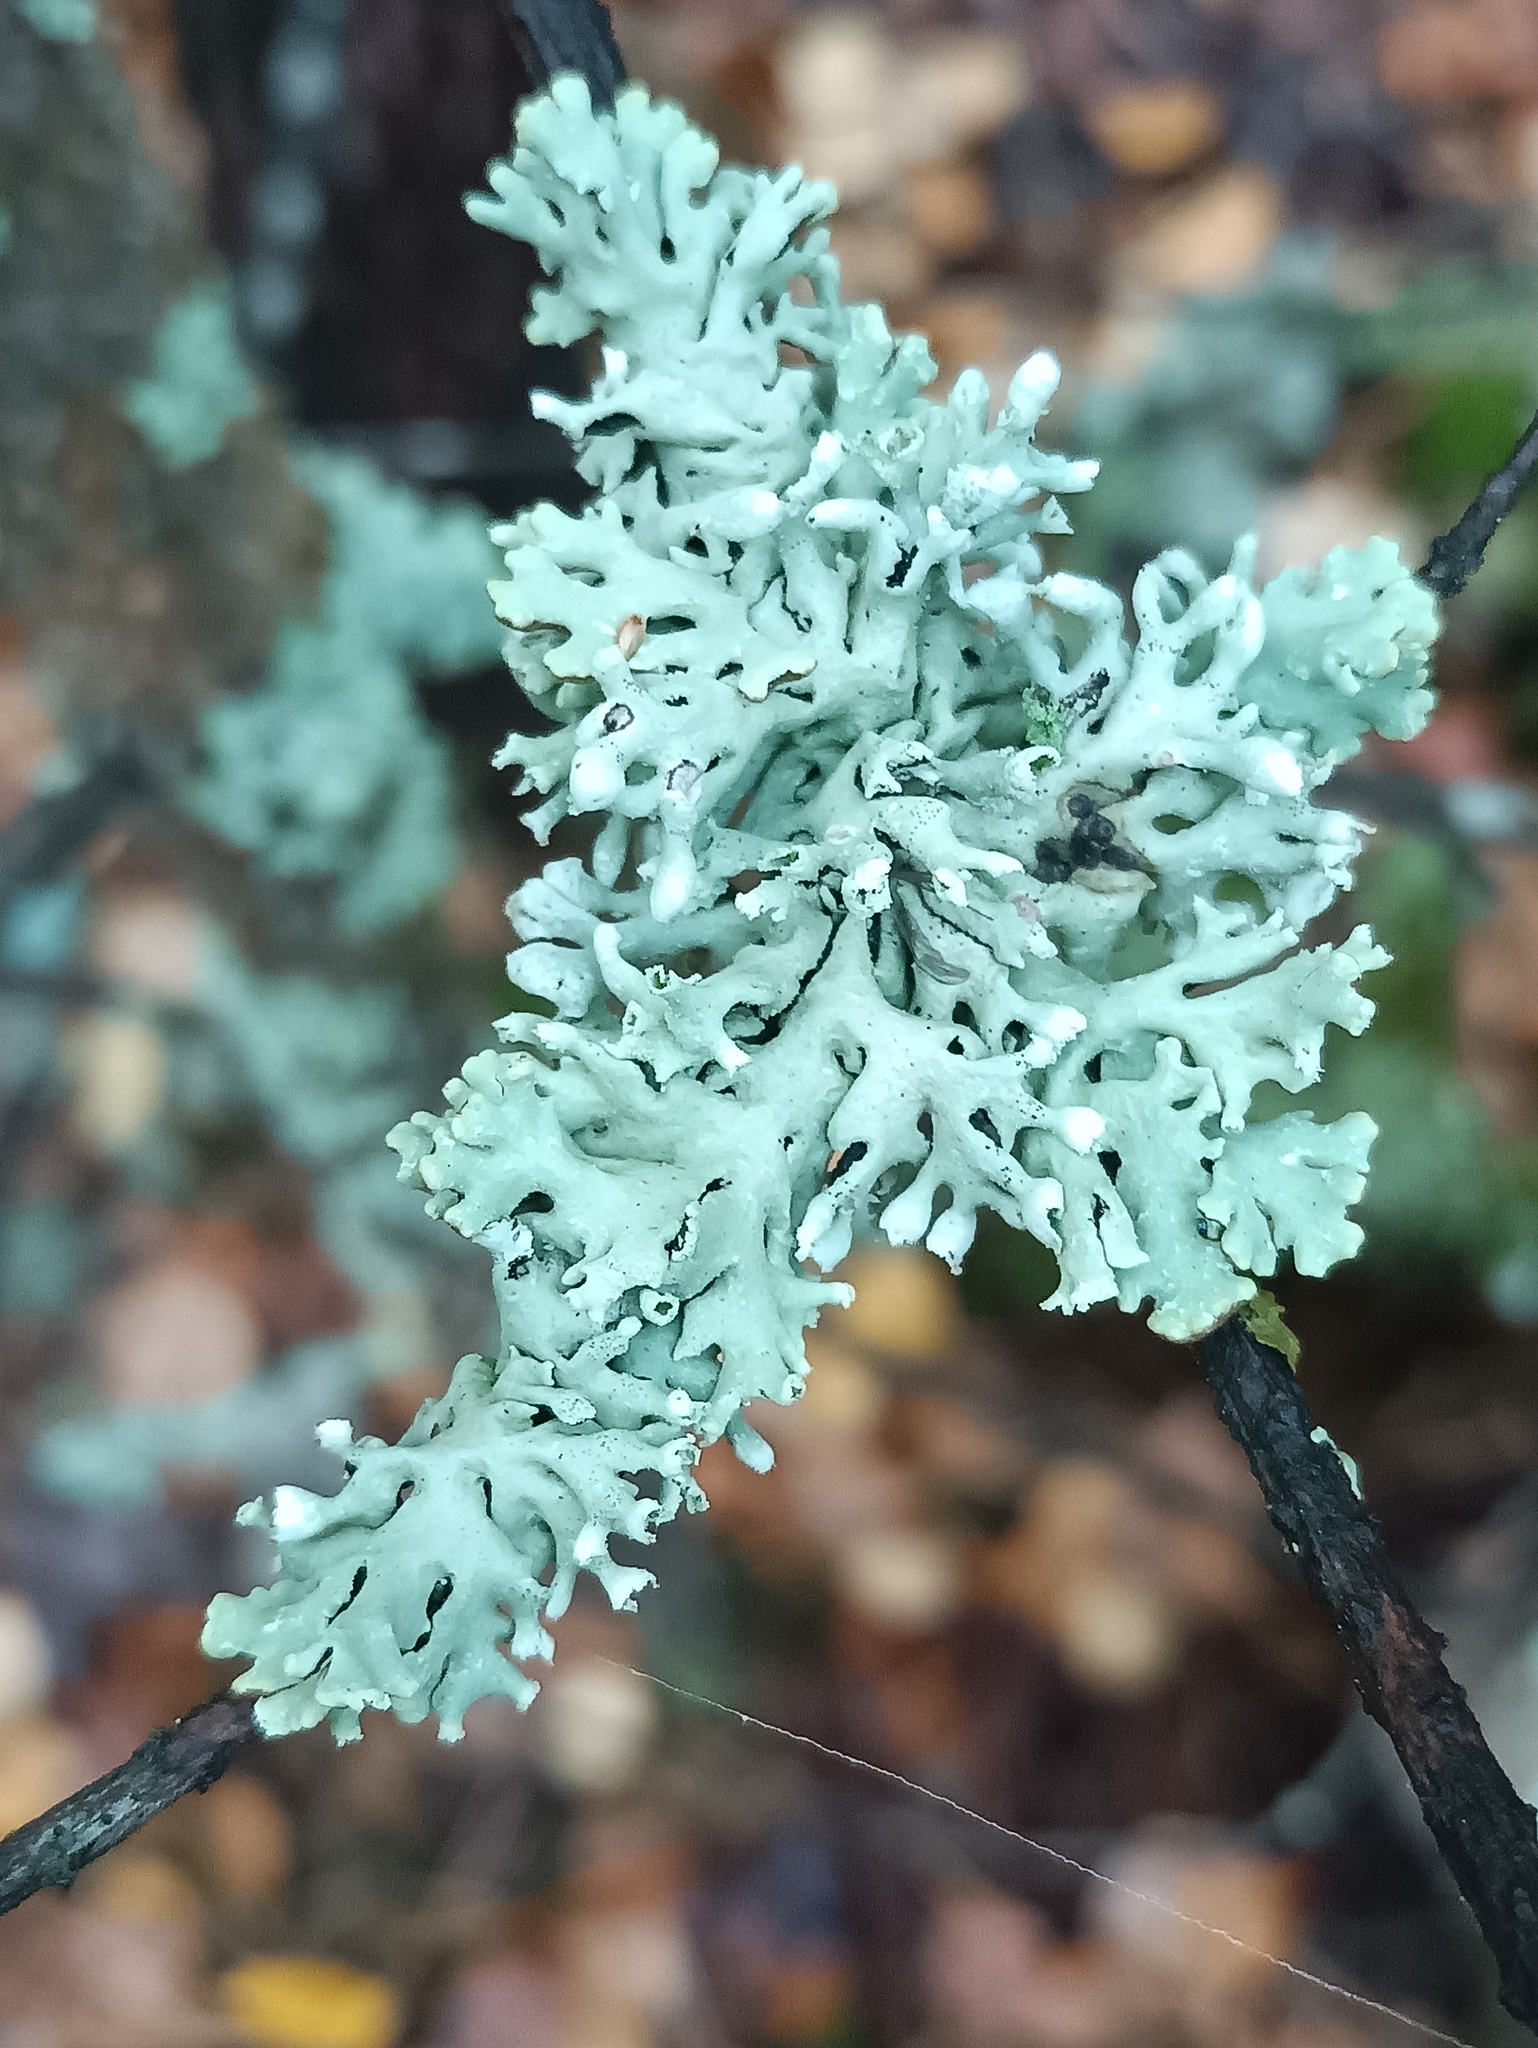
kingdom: Fungi
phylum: Ascomycota
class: Lecanoromycetes
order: Lecanorales
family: Parmeliaceae
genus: Hypogymnia
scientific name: Hypogymnia physodes
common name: Dark crottle
